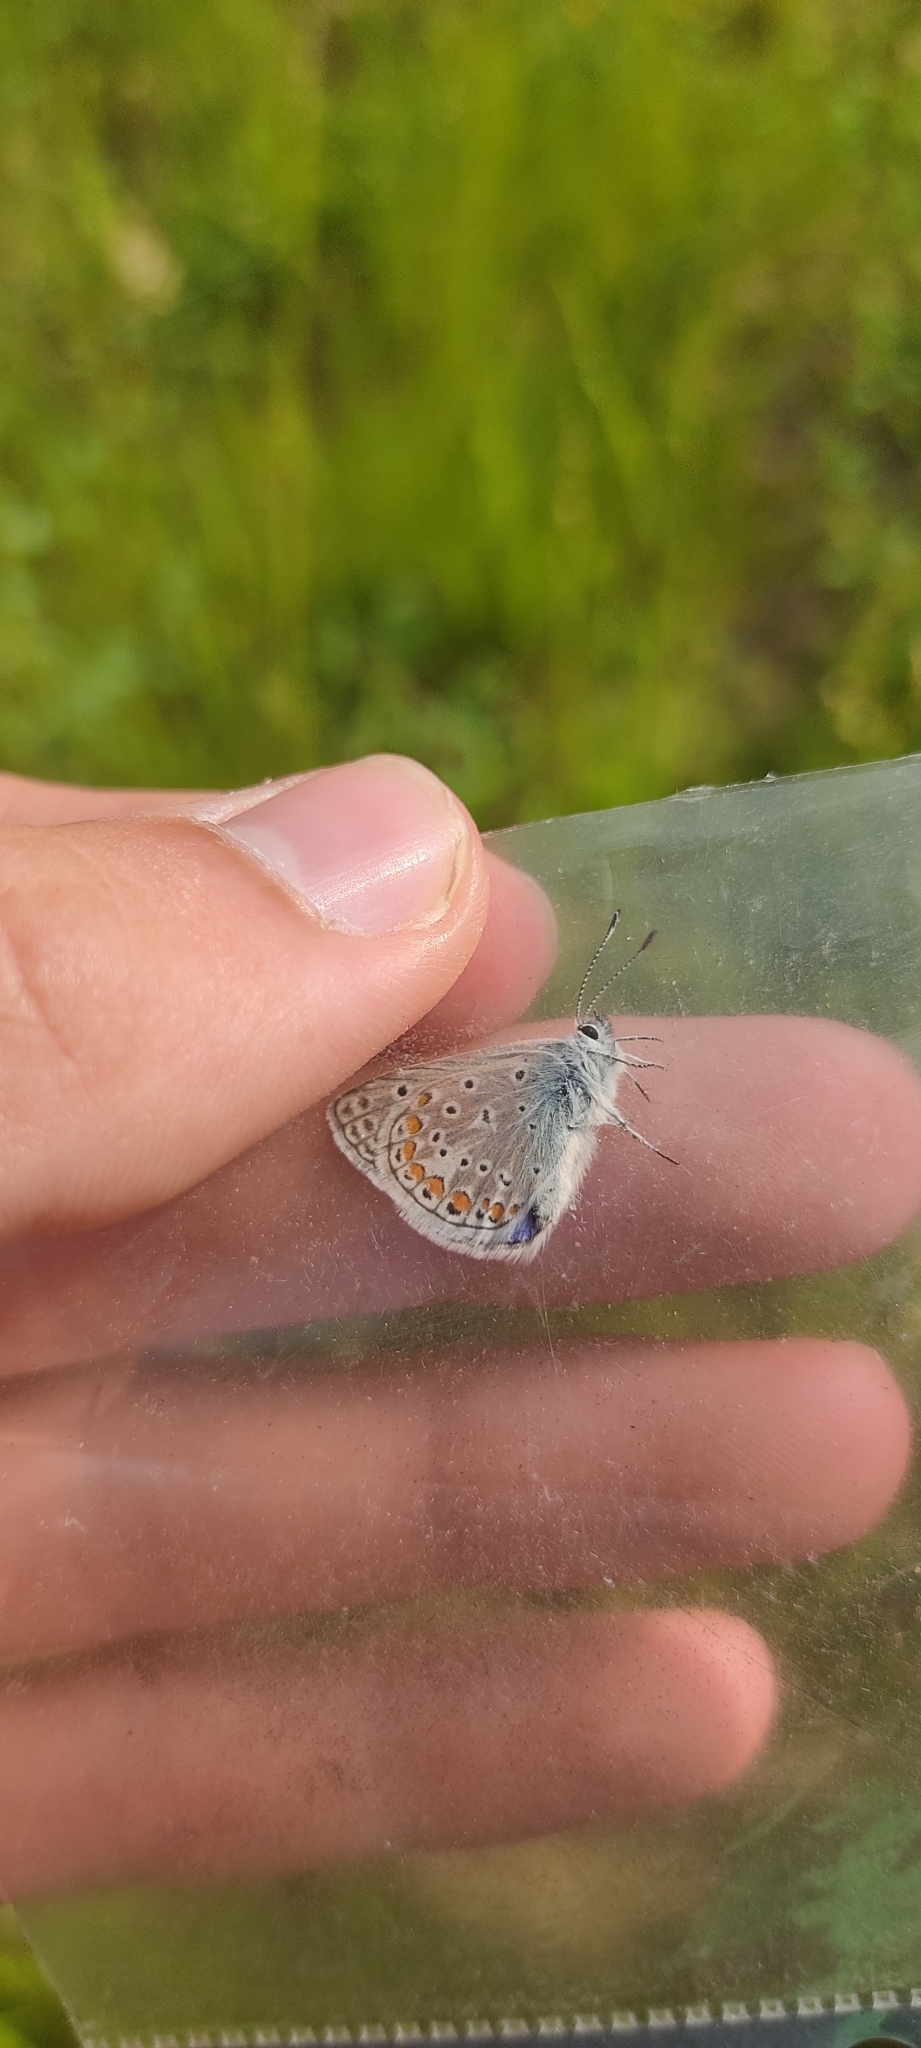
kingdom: Animalia
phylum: Arthropoda
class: Insecta
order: Lepidoptera
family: Lycaenidae
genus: Polyommatus
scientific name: Polyommatus icarus
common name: Common blue
